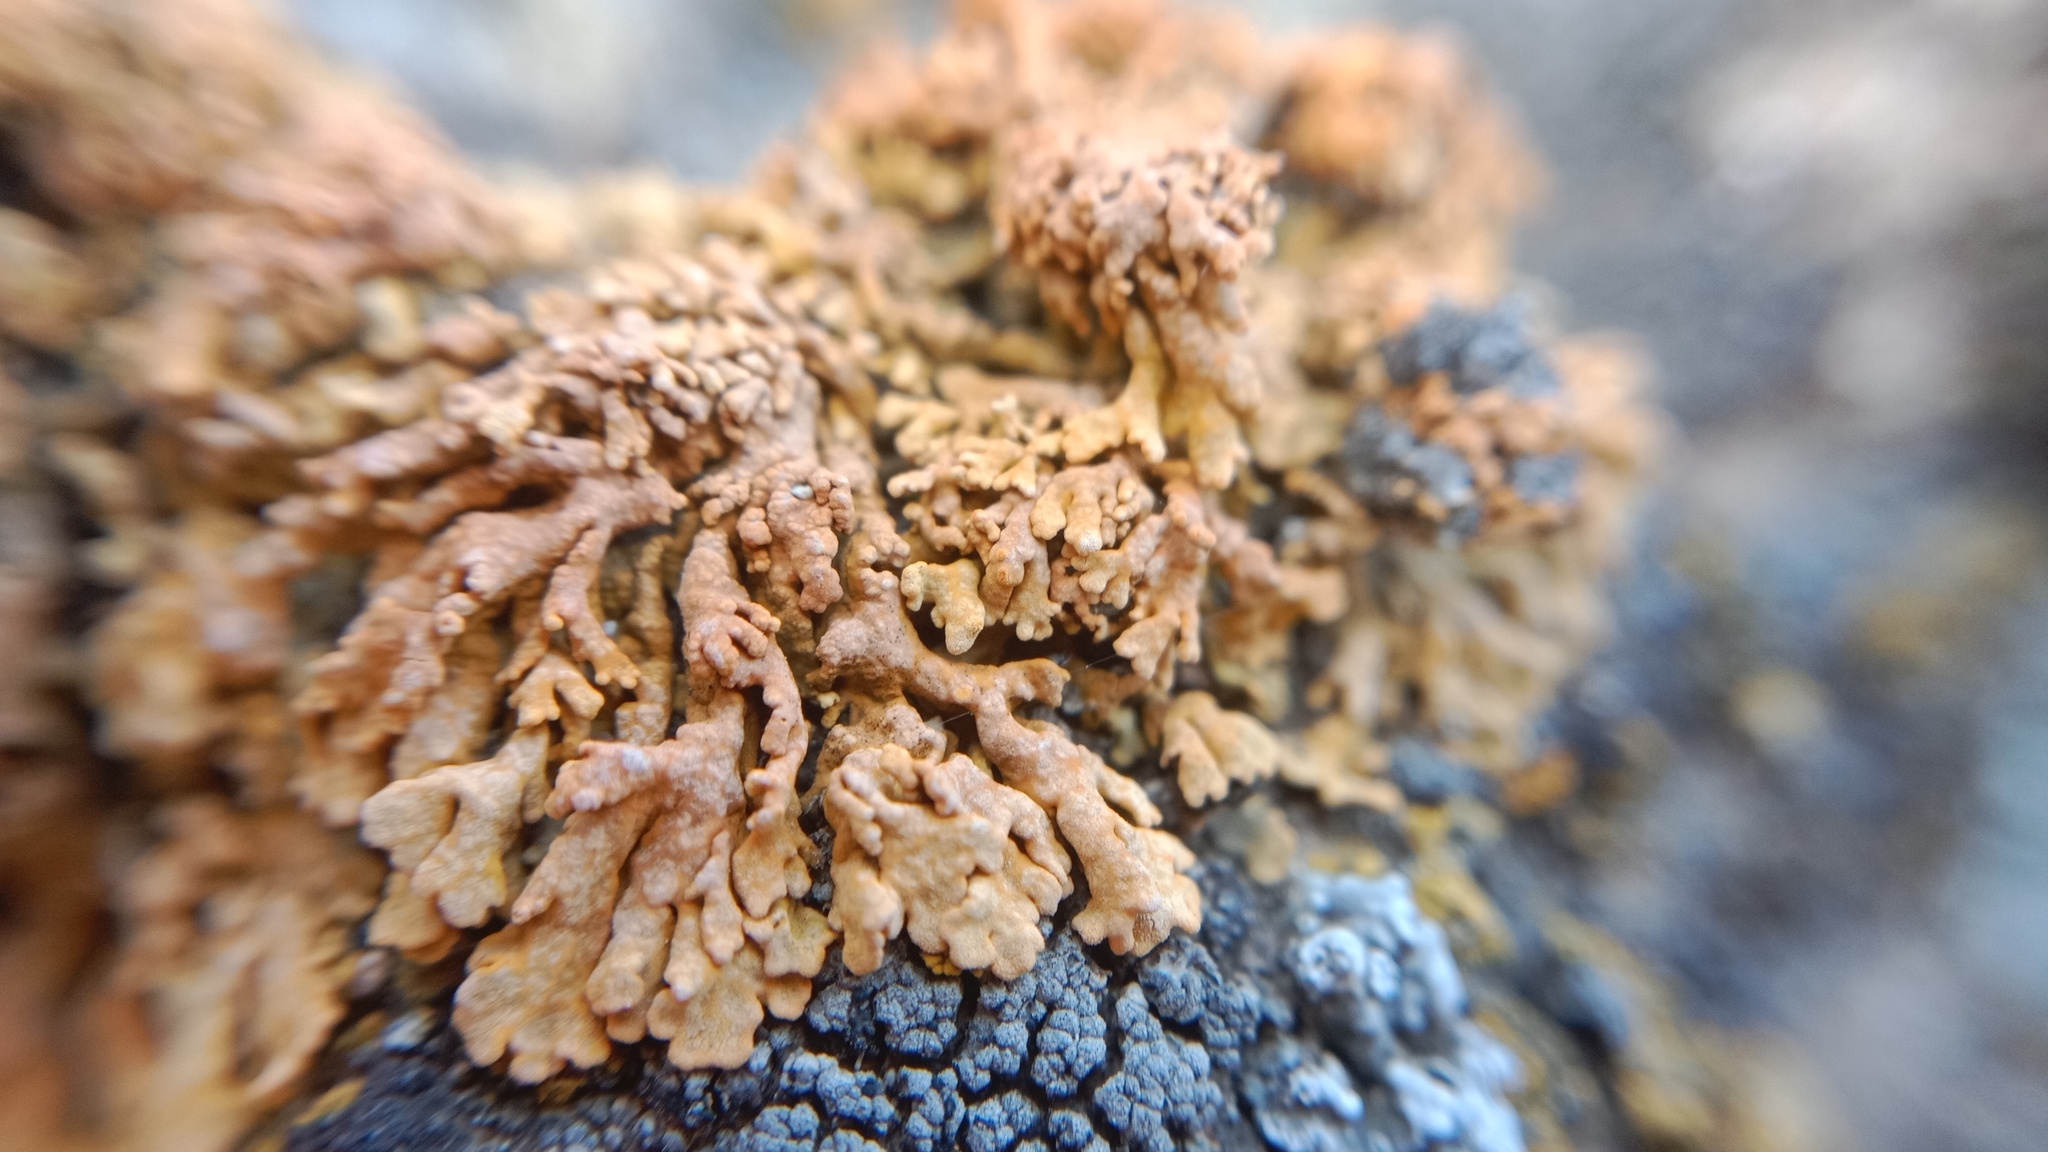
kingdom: Fungi
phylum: Ascomycota
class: Lecanoromycetes
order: Teloschistales
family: Teloschistaceae
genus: Zeroviella
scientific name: Zeroviella papillifera
